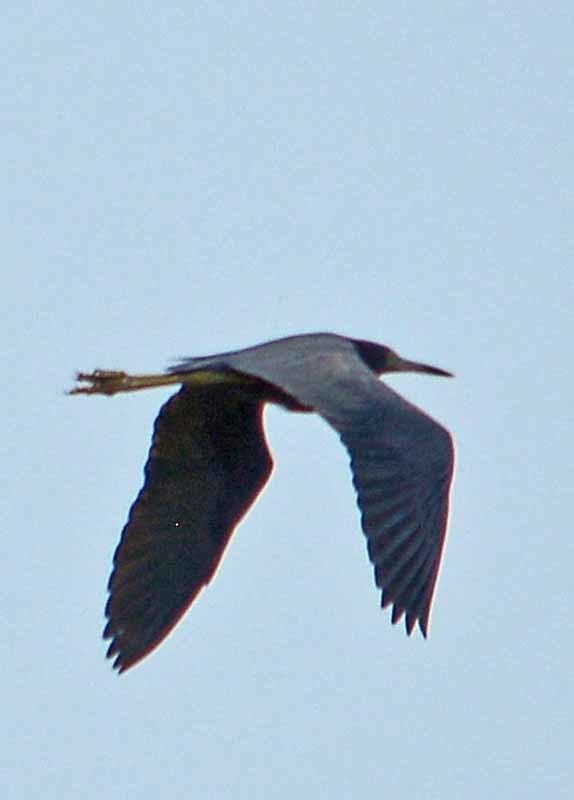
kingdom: Animalia
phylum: Chordata
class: Aves
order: Pelecaniformes
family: Ardeidae
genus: Egretta
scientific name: Egretta caerulea
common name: Little blue heron
